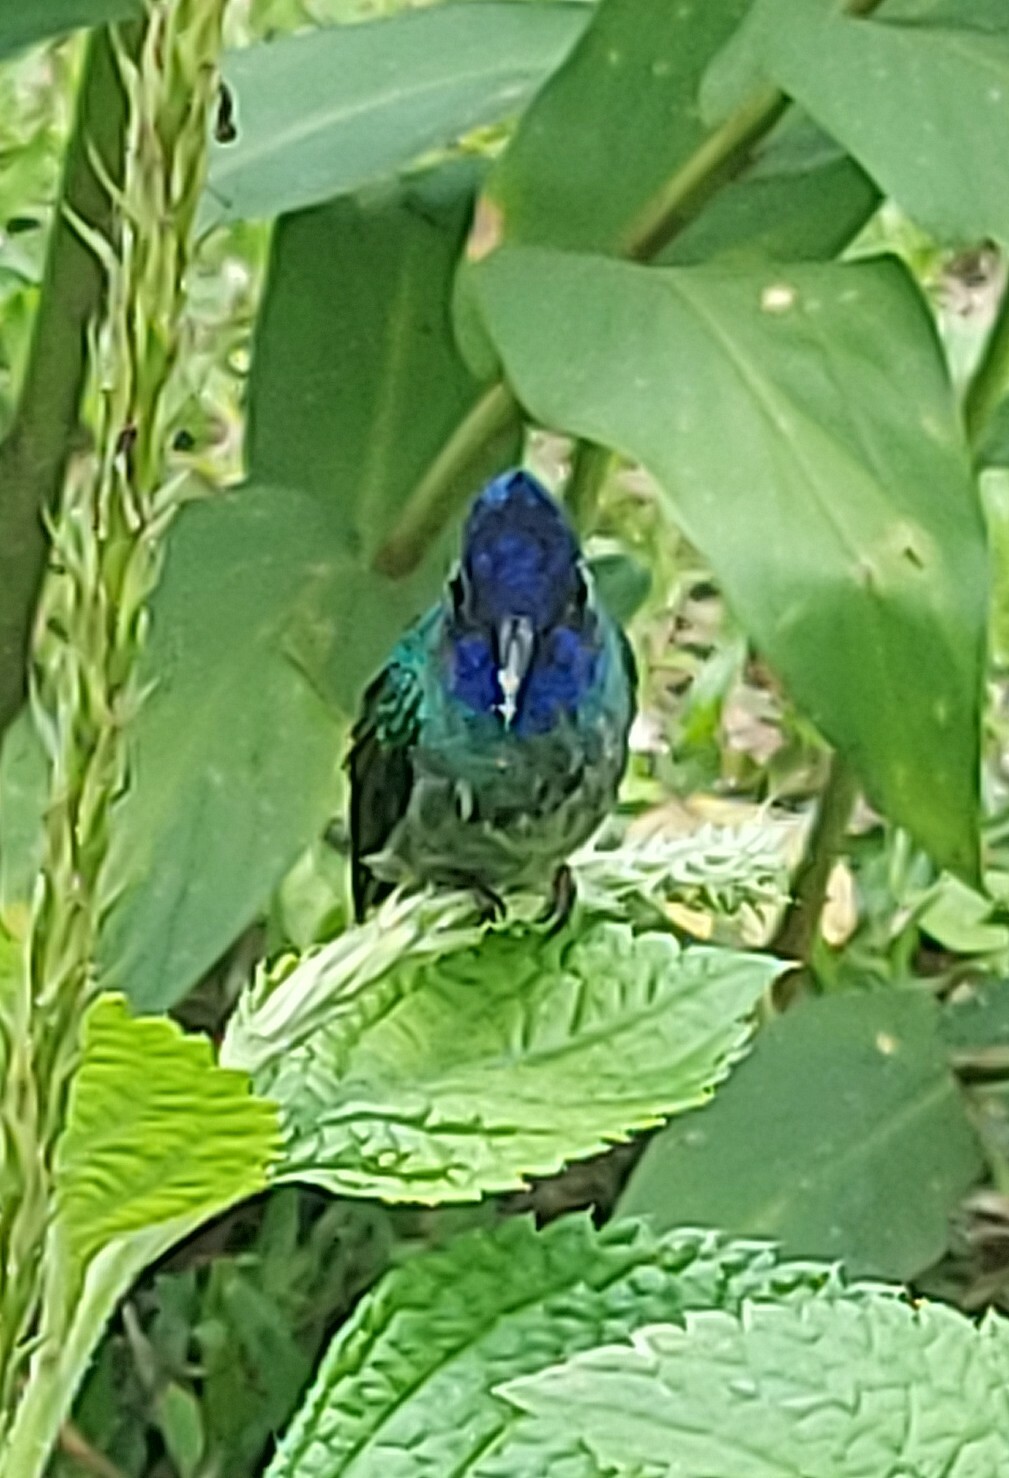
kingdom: Animalia
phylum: Chordata
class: Aves
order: Apodiformes
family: Trochilidae
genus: Klais
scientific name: Klais guimeti
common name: Violet-headed hummingbird
